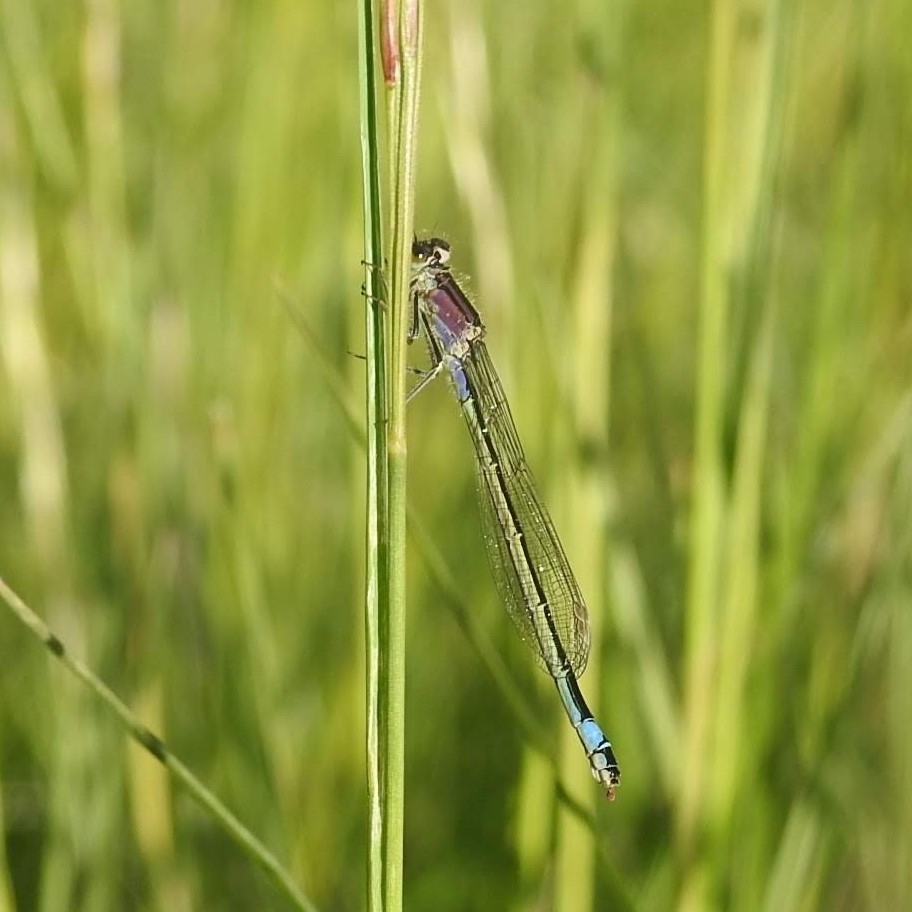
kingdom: Animalia
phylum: Arthropoda
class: Insecta
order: Odonata
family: Coenagrionidae
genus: Ischnura
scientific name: Ischnura elegans
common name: Blue-tailed damselfly
